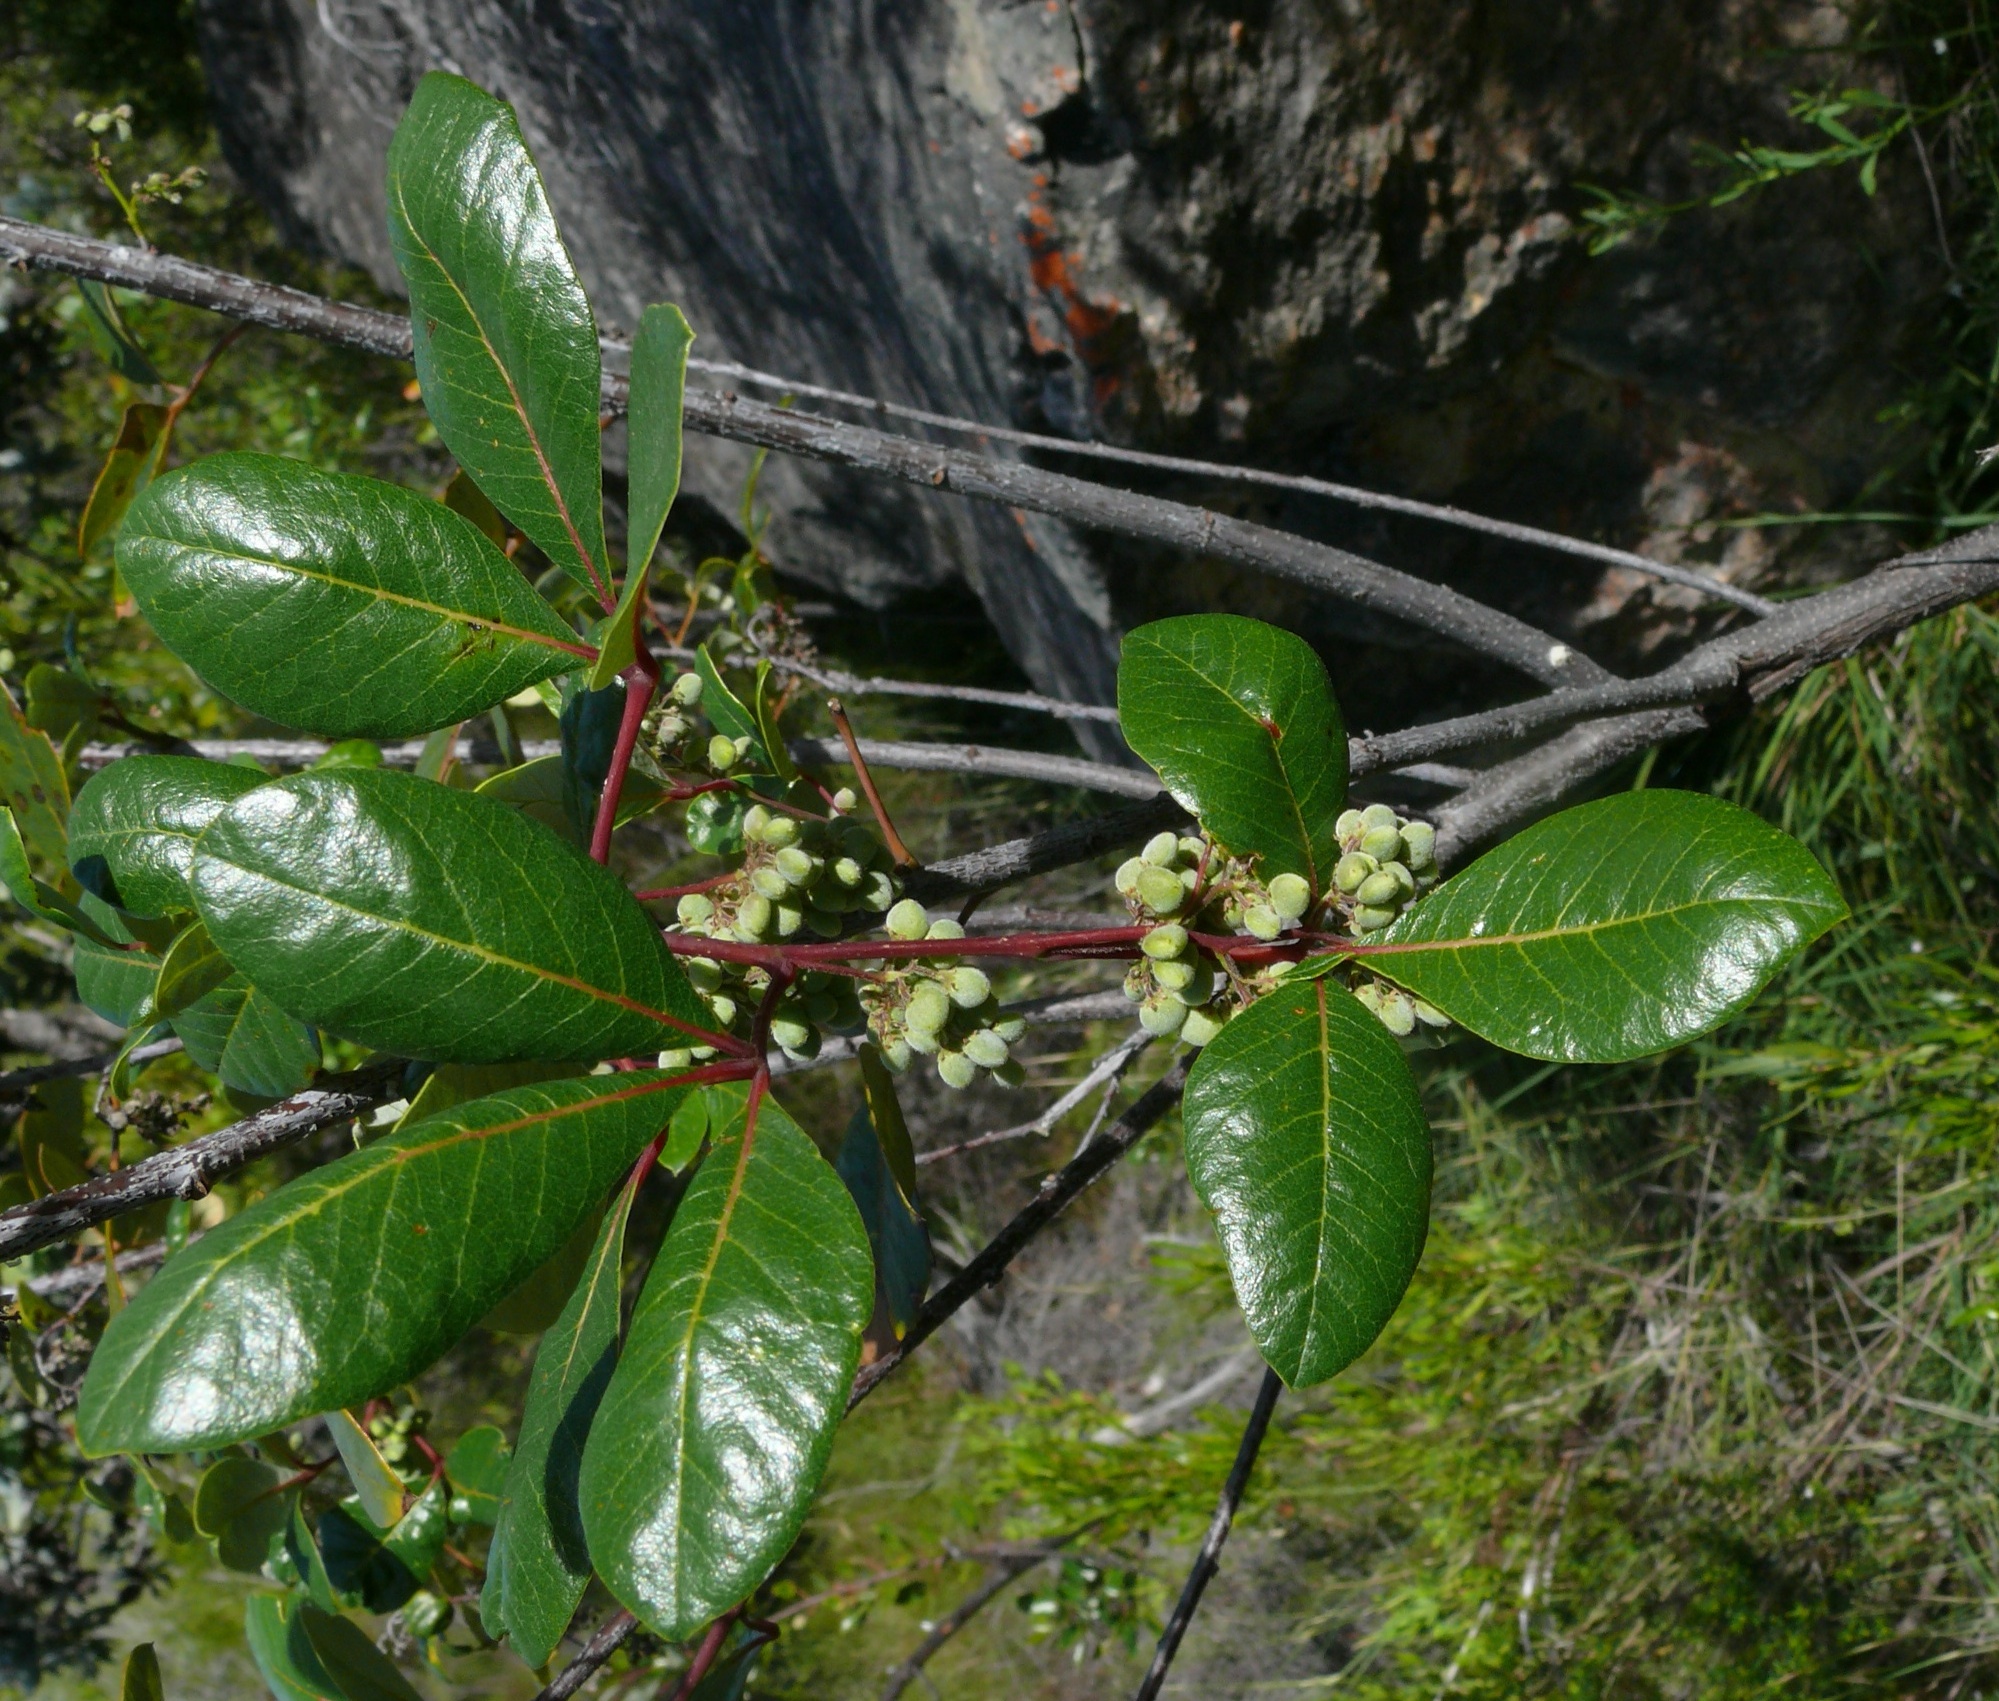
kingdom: Plantae
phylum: Tracheophyta
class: Magnoliopsida
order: Sapindales
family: Anacardiaceae
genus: Searsia
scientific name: Searsia tomentosa
